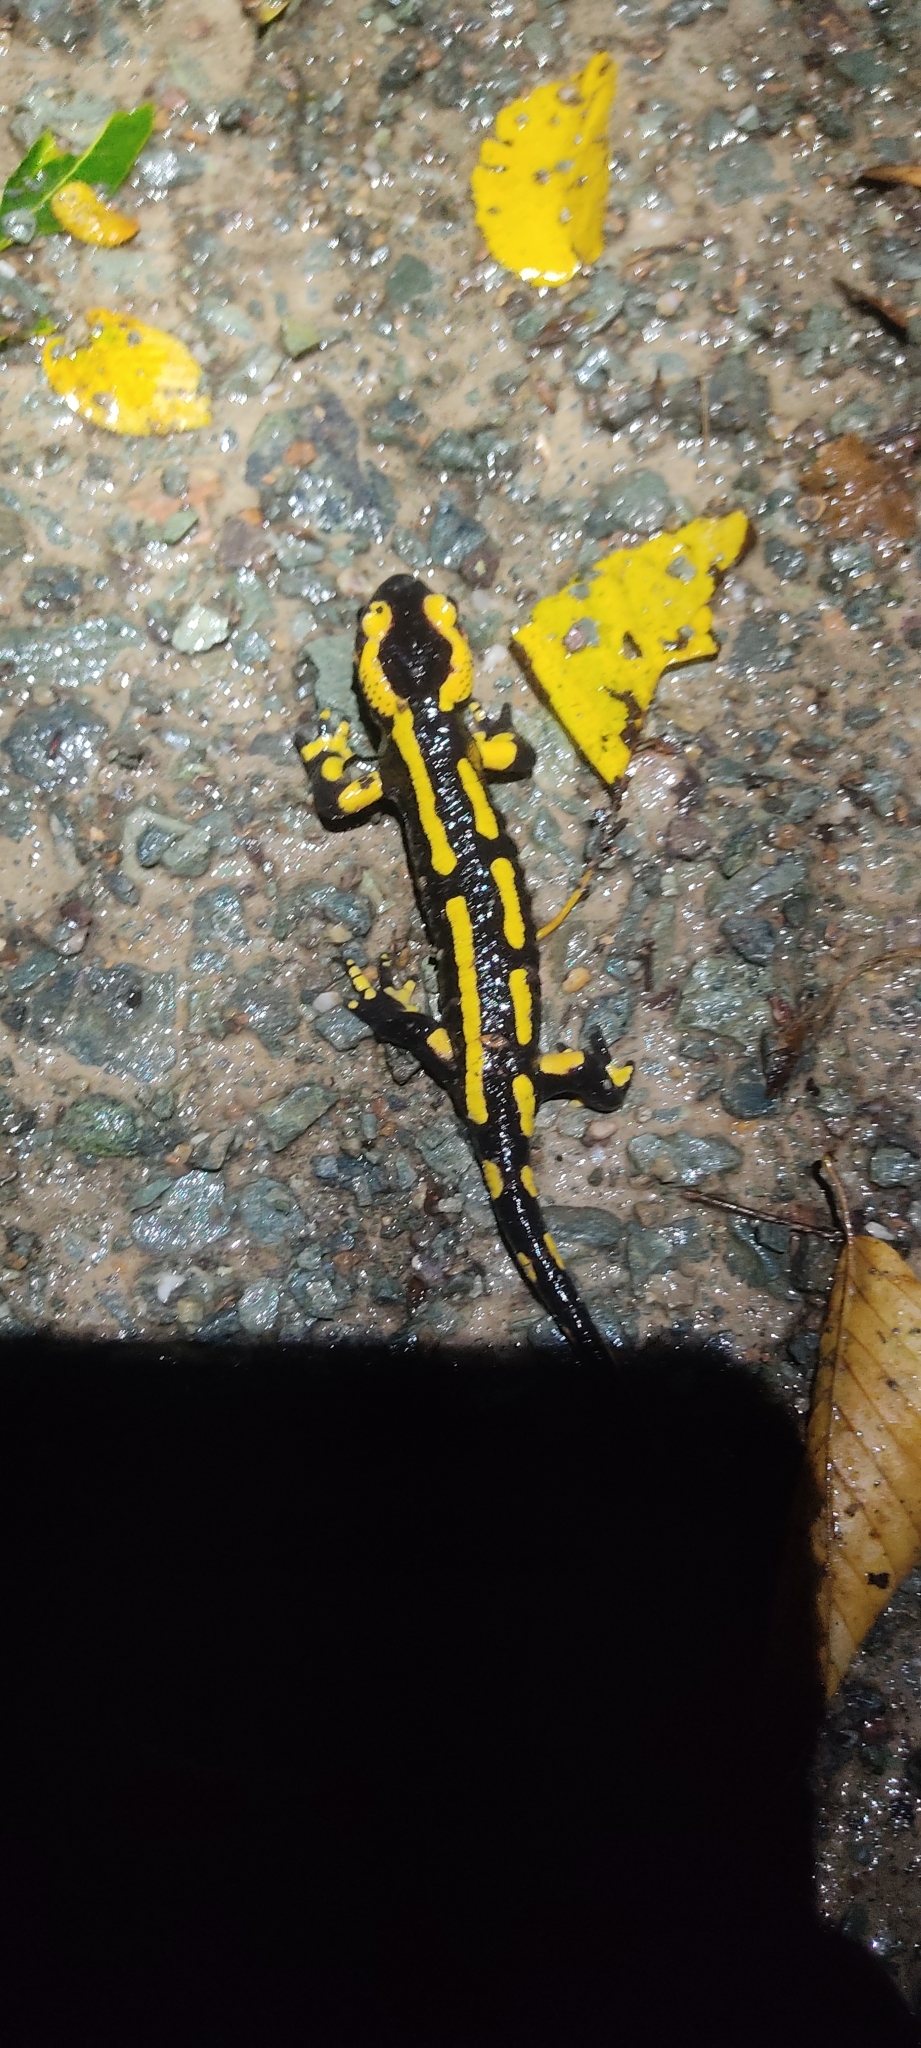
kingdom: Animalia
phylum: Chordata
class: Amphibia
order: Caudata
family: Salamandridae
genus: Salamandra
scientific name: Salamandra salamandra
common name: Fire salamander
